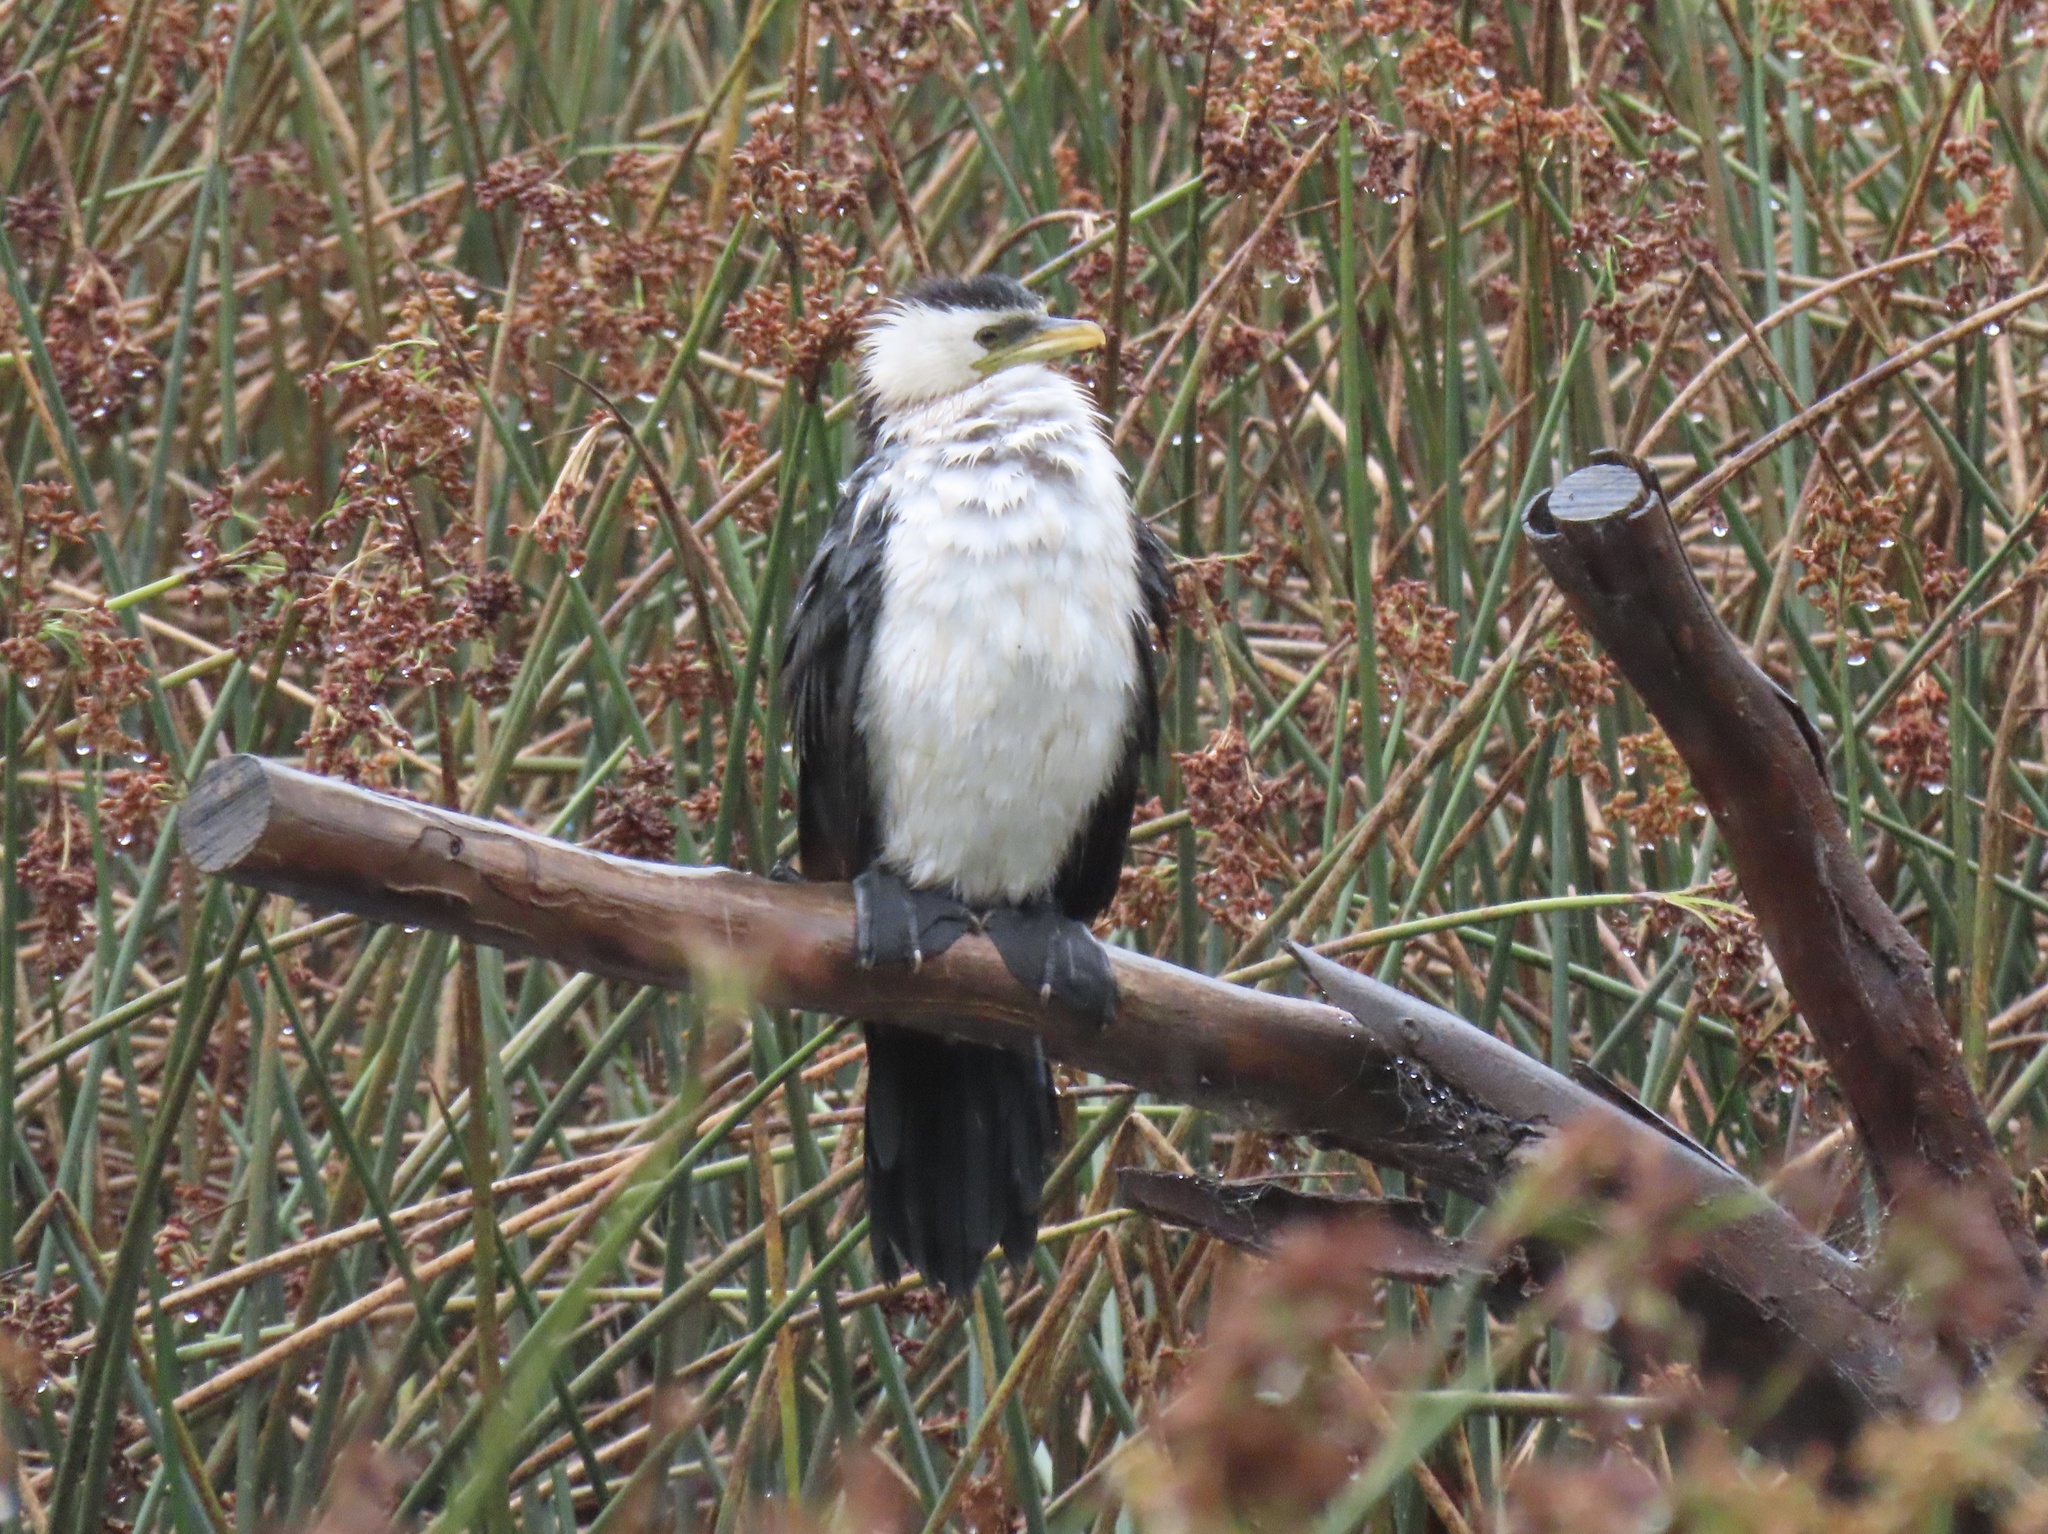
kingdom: Animalia
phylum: Chordata
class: Aves
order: Suliformes
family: Phalacrocoracidae
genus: Microcarbo
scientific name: Microcarbo melanoleucos
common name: Little pied cormorant
